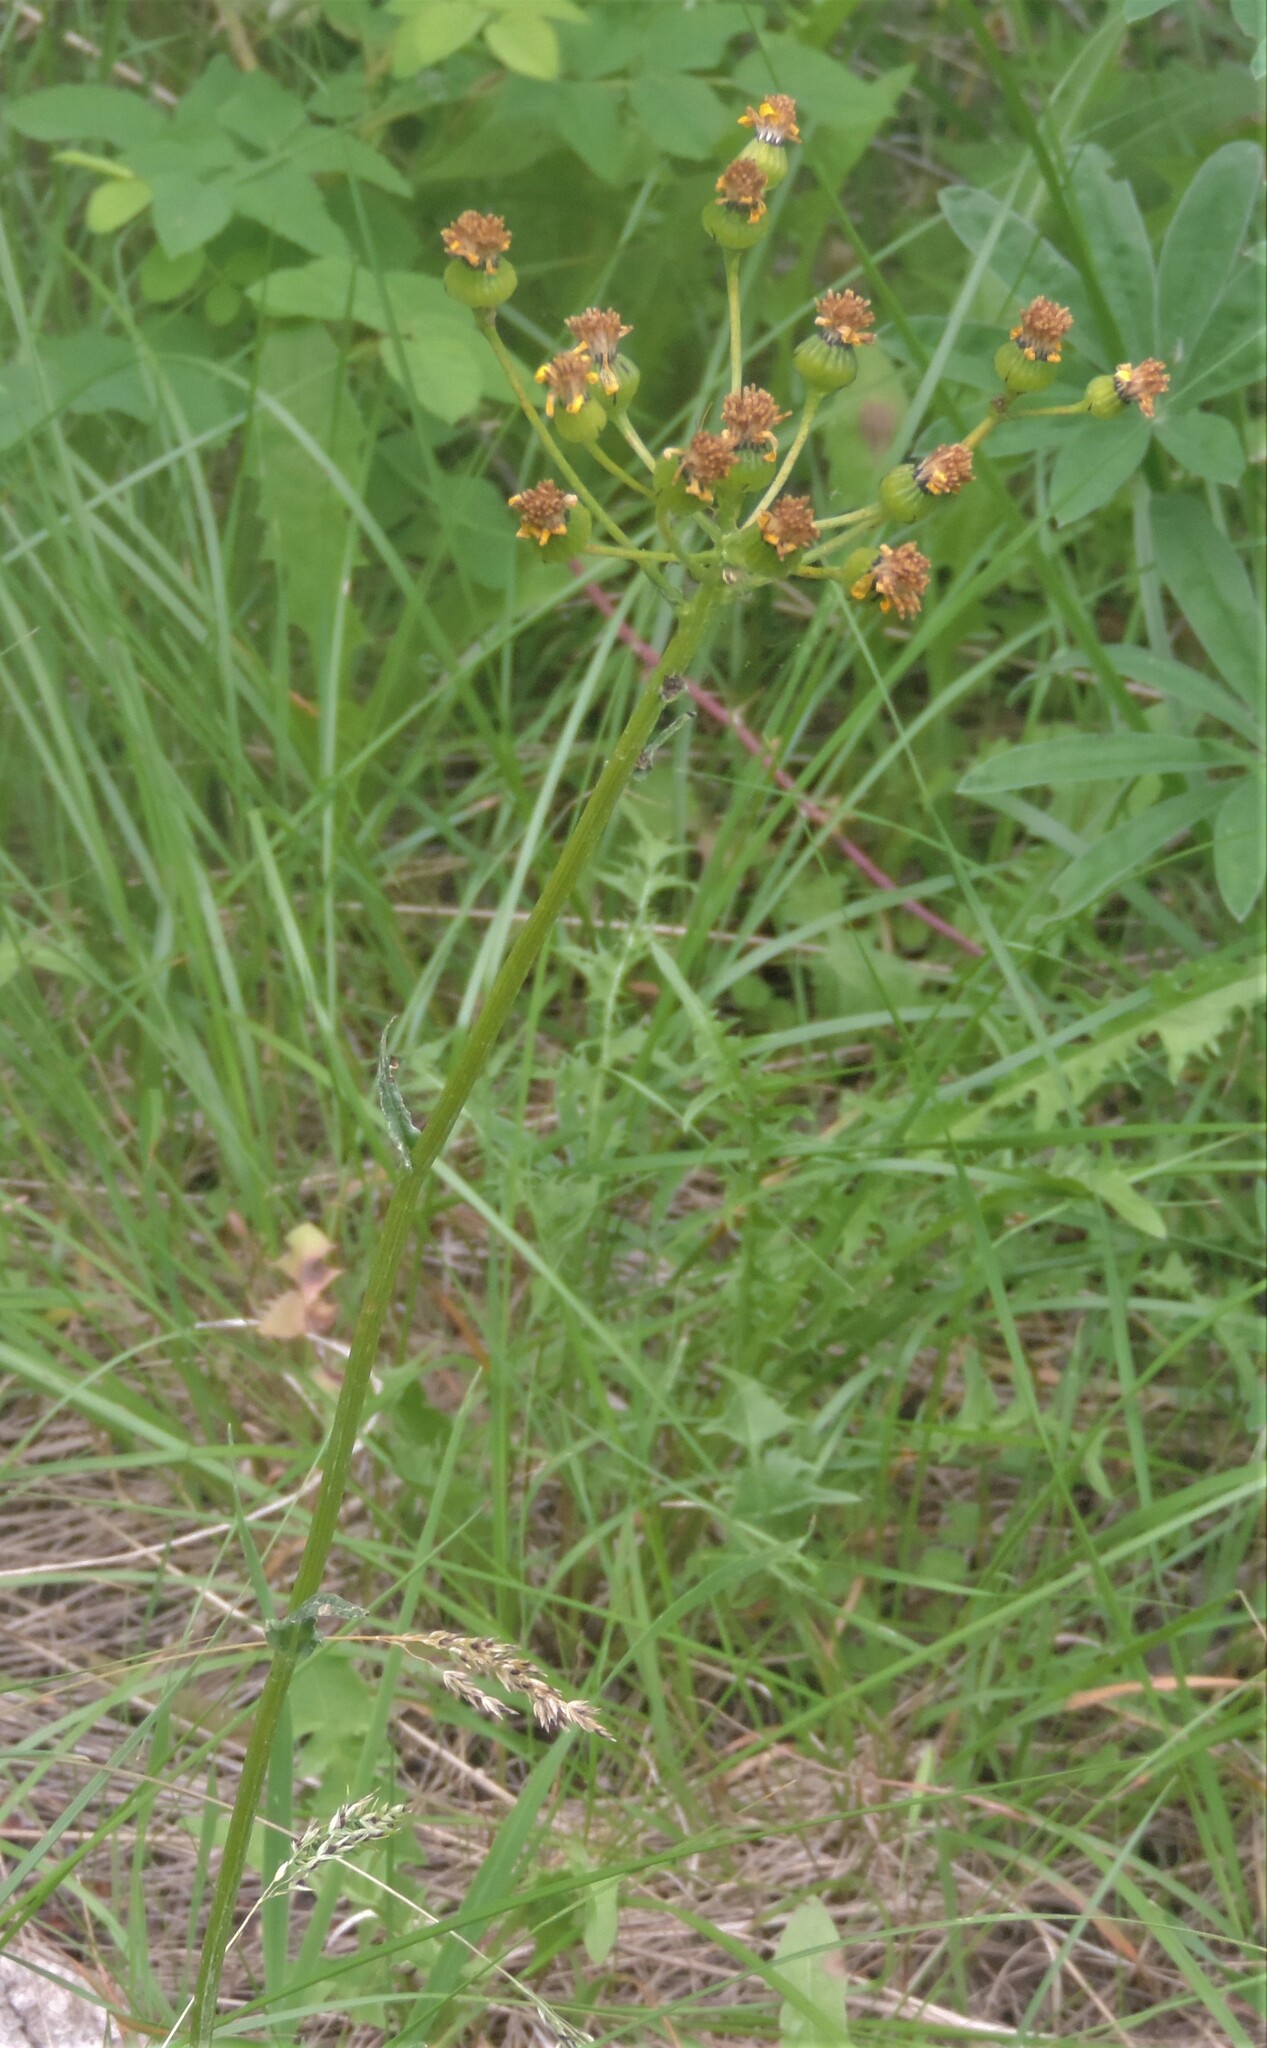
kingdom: Plantae
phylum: Tracheophyta
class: Magnoliopsida
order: Asterales
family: Asteraceae
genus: Senecio
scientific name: Senecio integerrimus
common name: Gaugeplant
